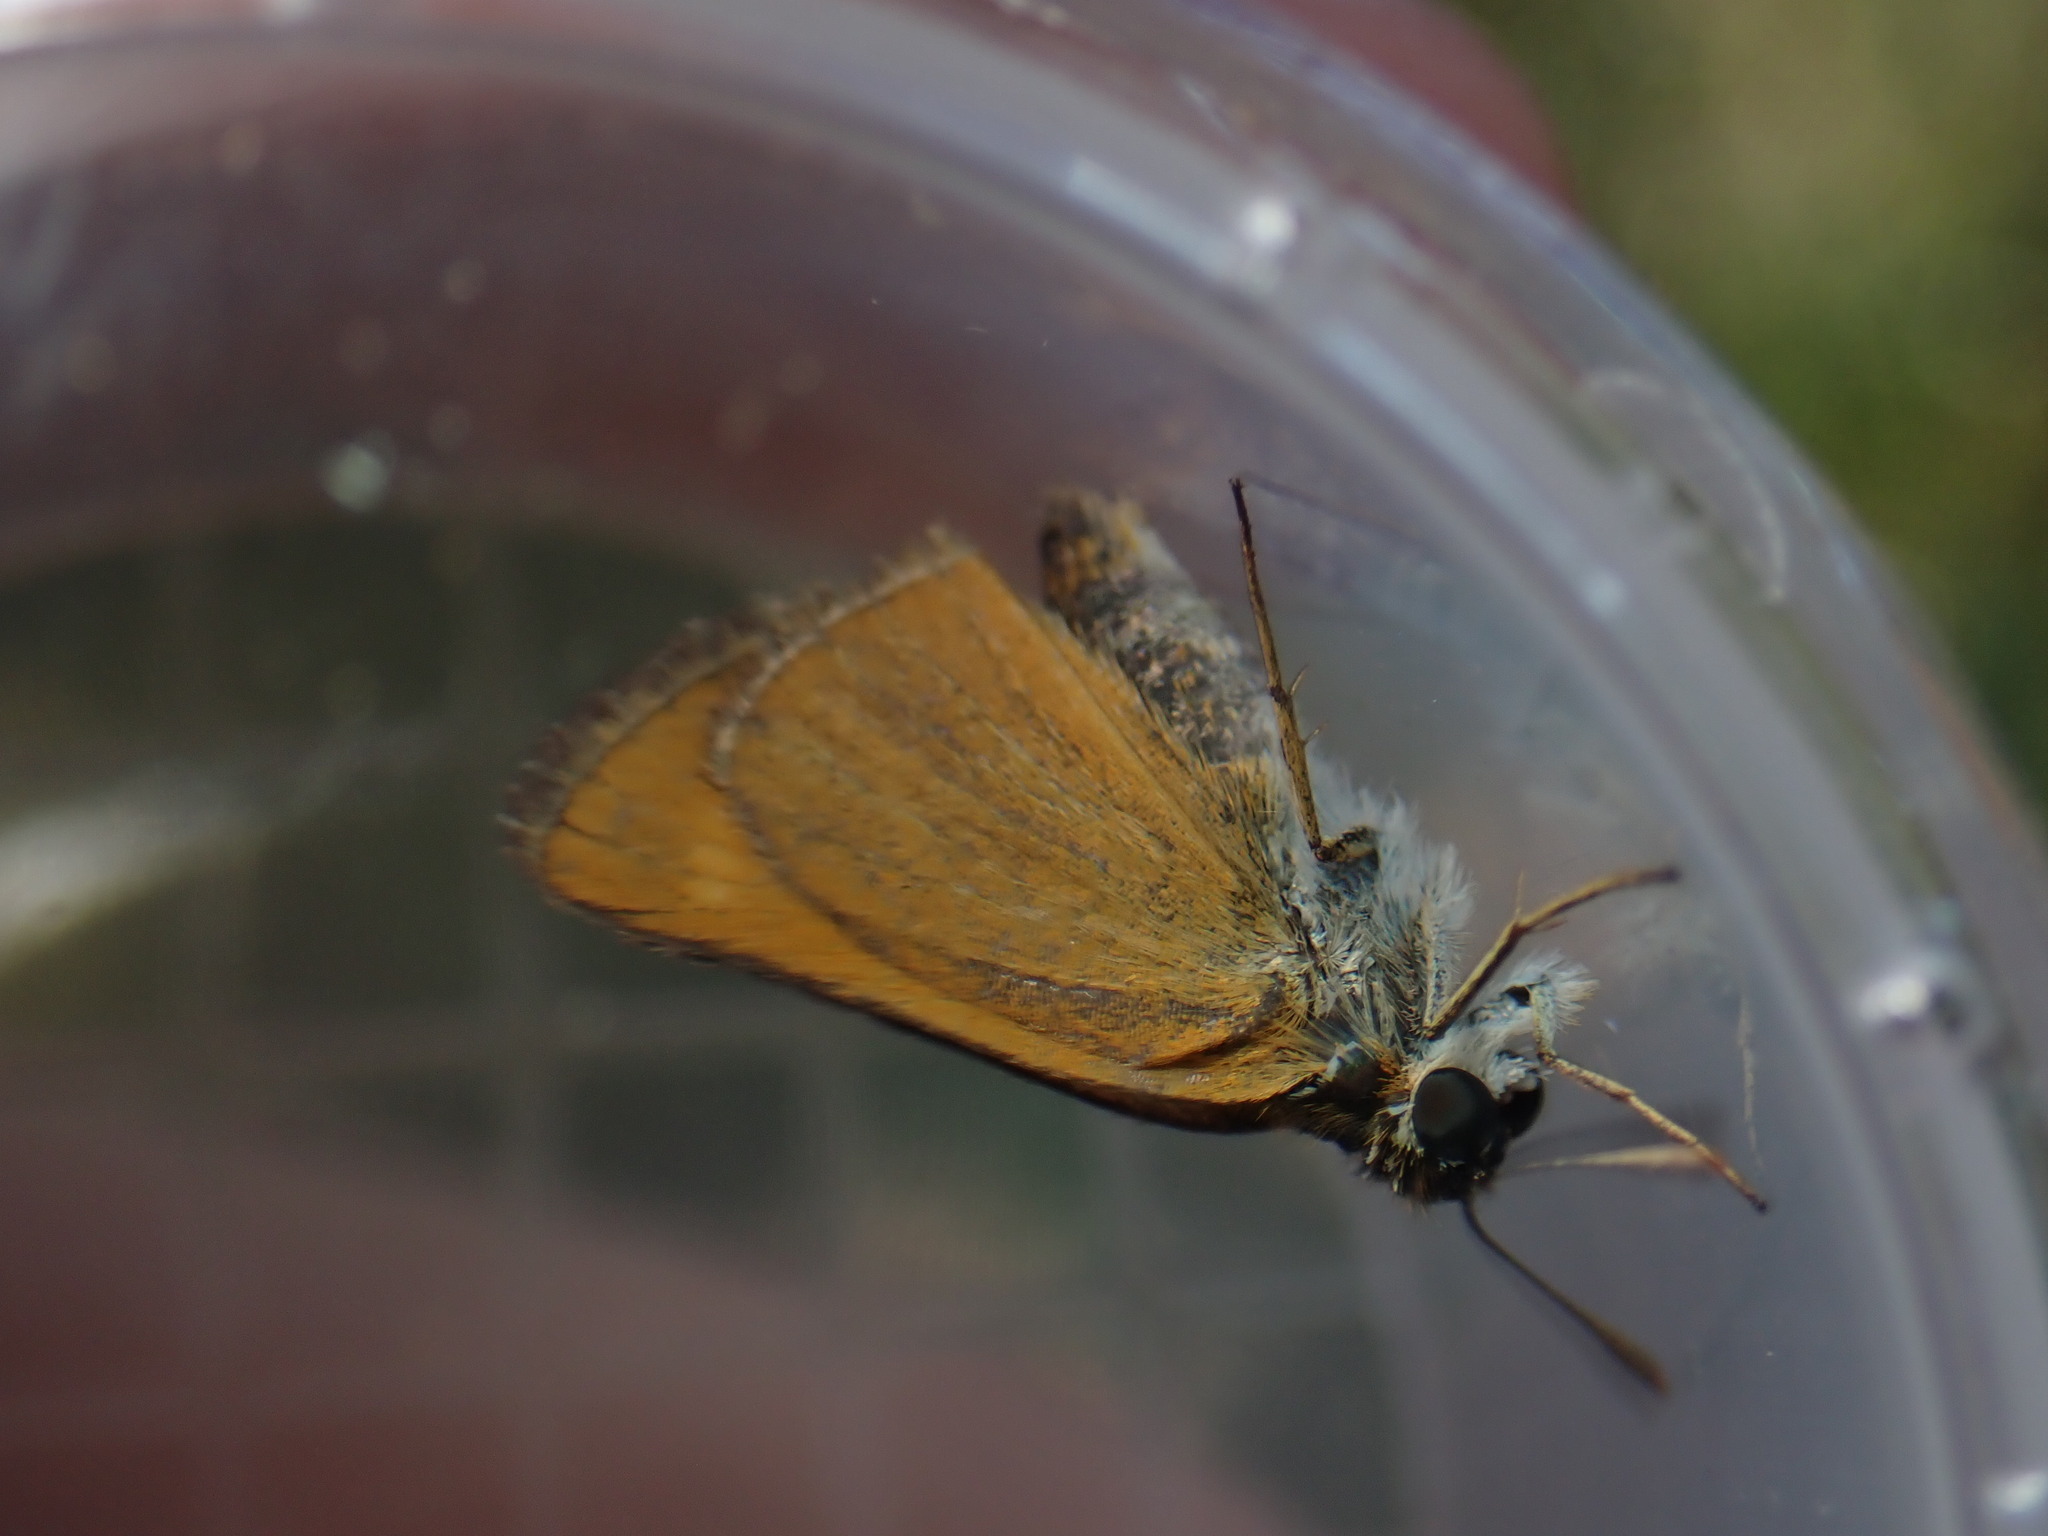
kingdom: Animalia
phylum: Arthropoda
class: Insecta
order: Lepidoptera
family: Hesperiidae
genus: Thymelicus
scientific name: Thymelicus acteon
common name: Lulworth skipper
